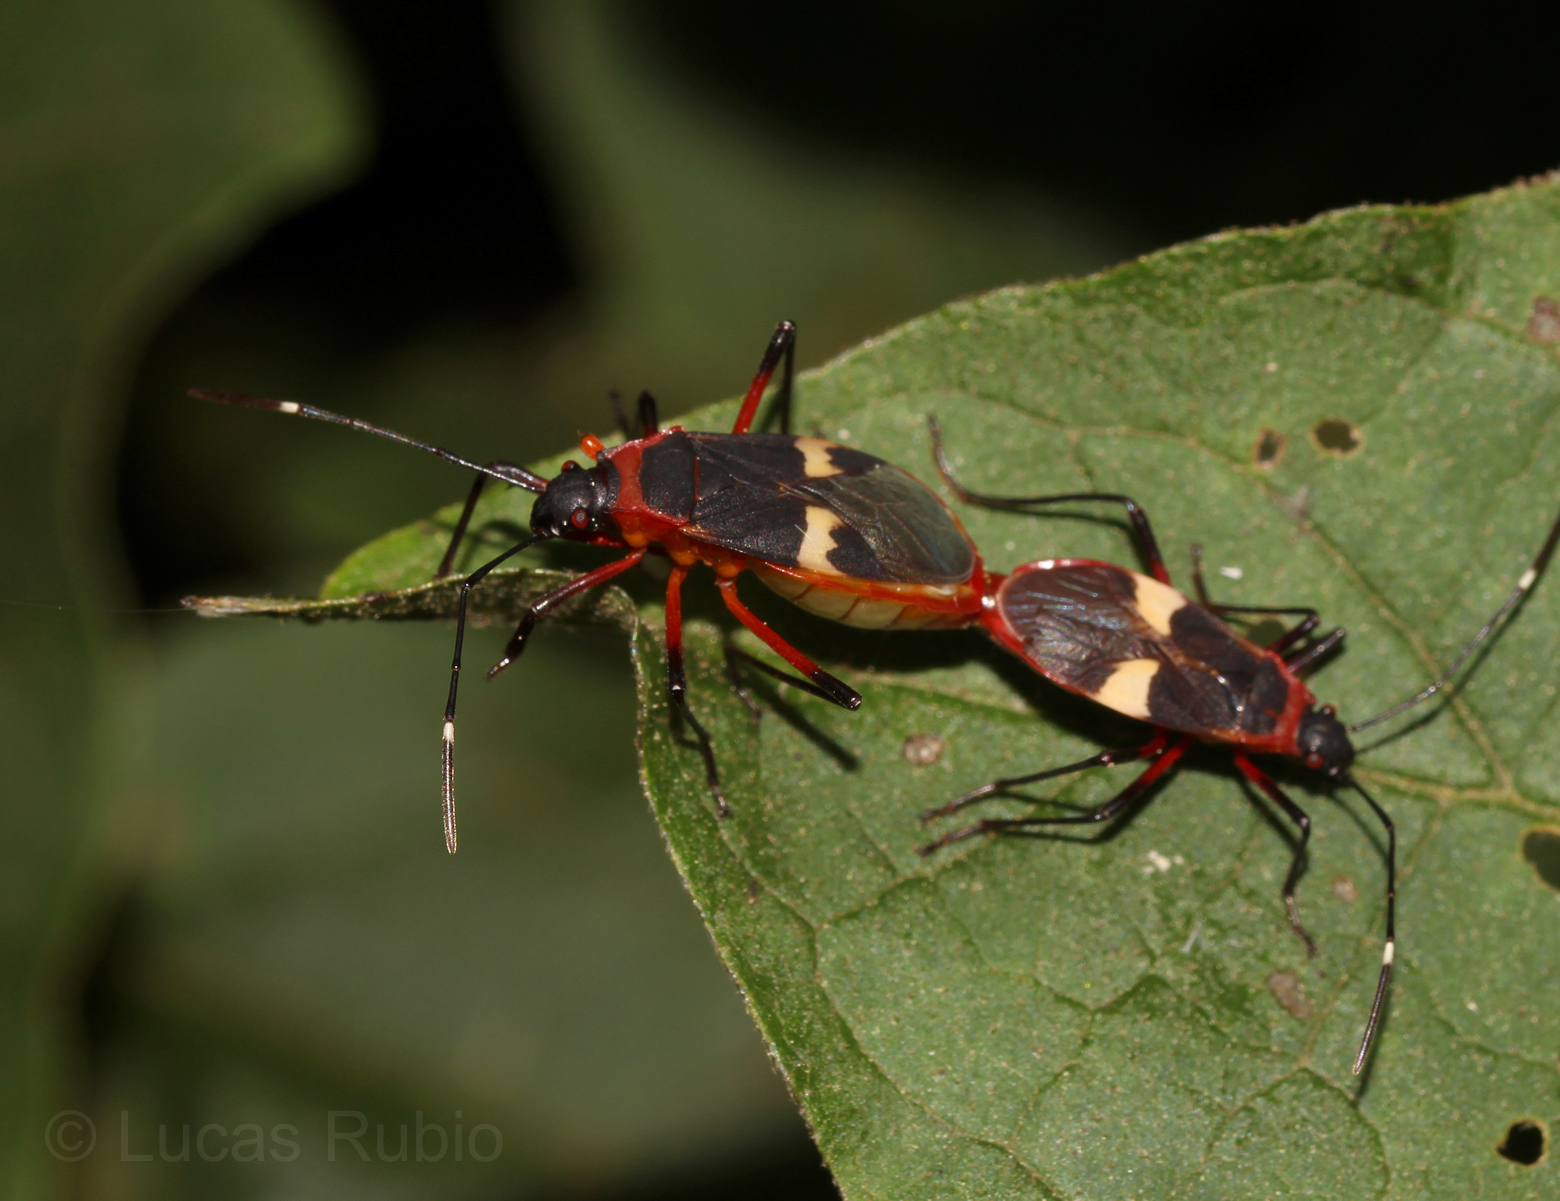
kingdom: Animalia
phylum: Arthropoda
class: Insecta
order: Hemiptera
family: Pyrrhocoridae
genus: Dysdercus
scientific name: Dysdercus albofasciatus
